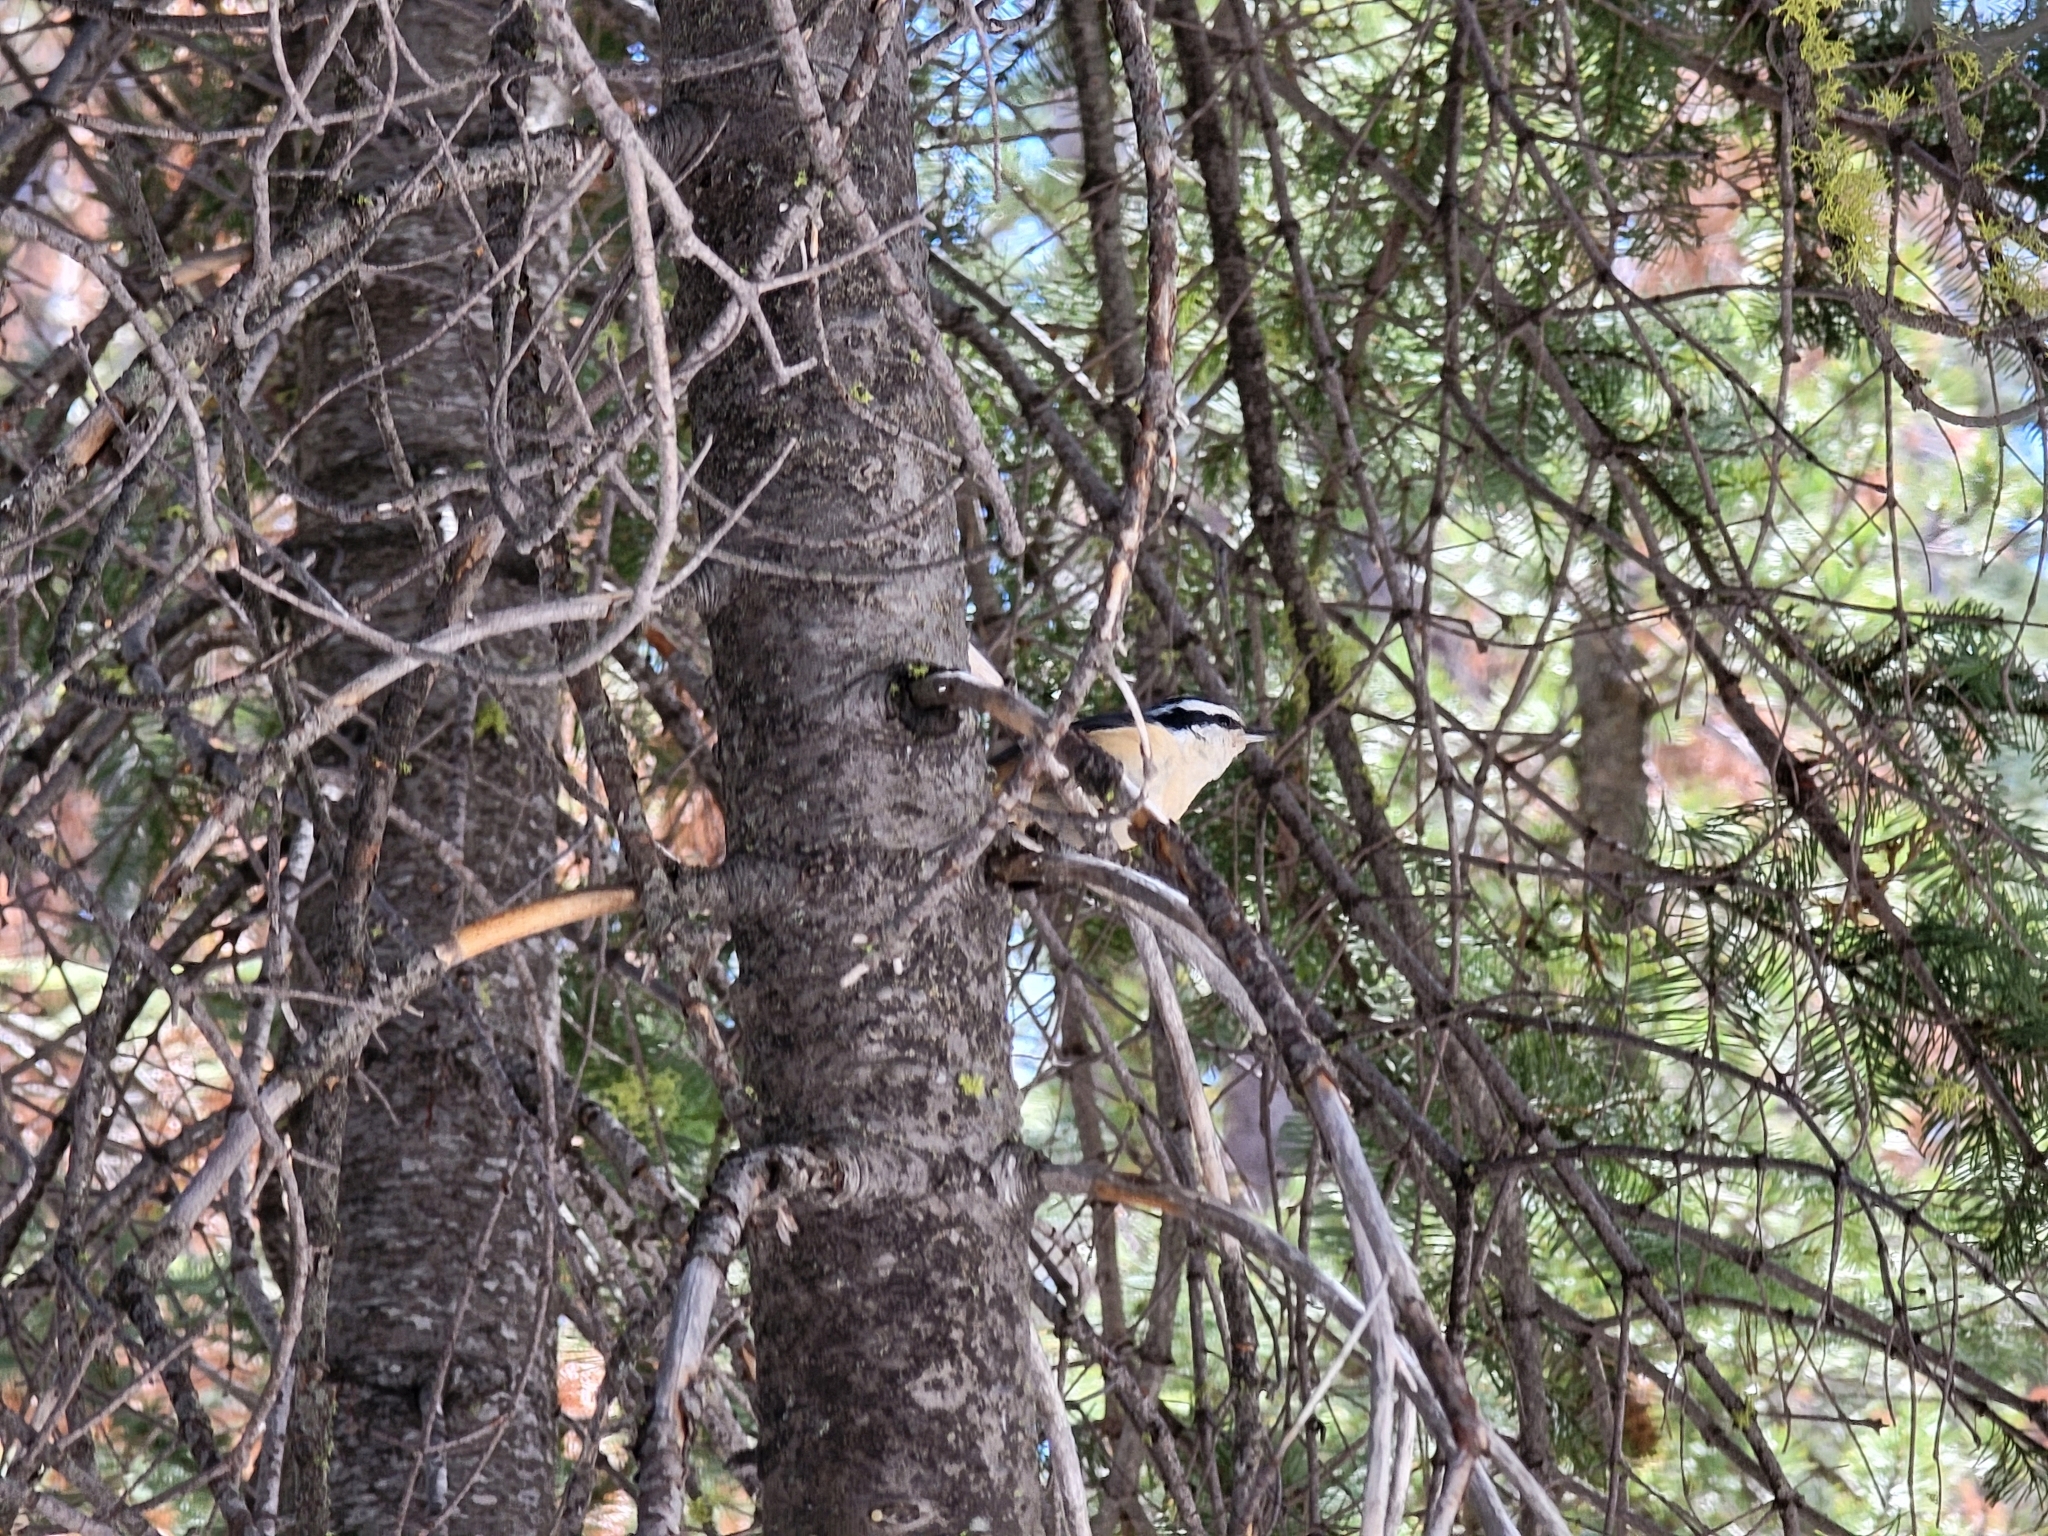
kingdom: Animalia
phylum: Chordata
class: Aves
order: Passeriformes
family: Sittidae
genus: Sitta
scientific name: Sitta canadensis
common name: Red-breasted nuthatch
